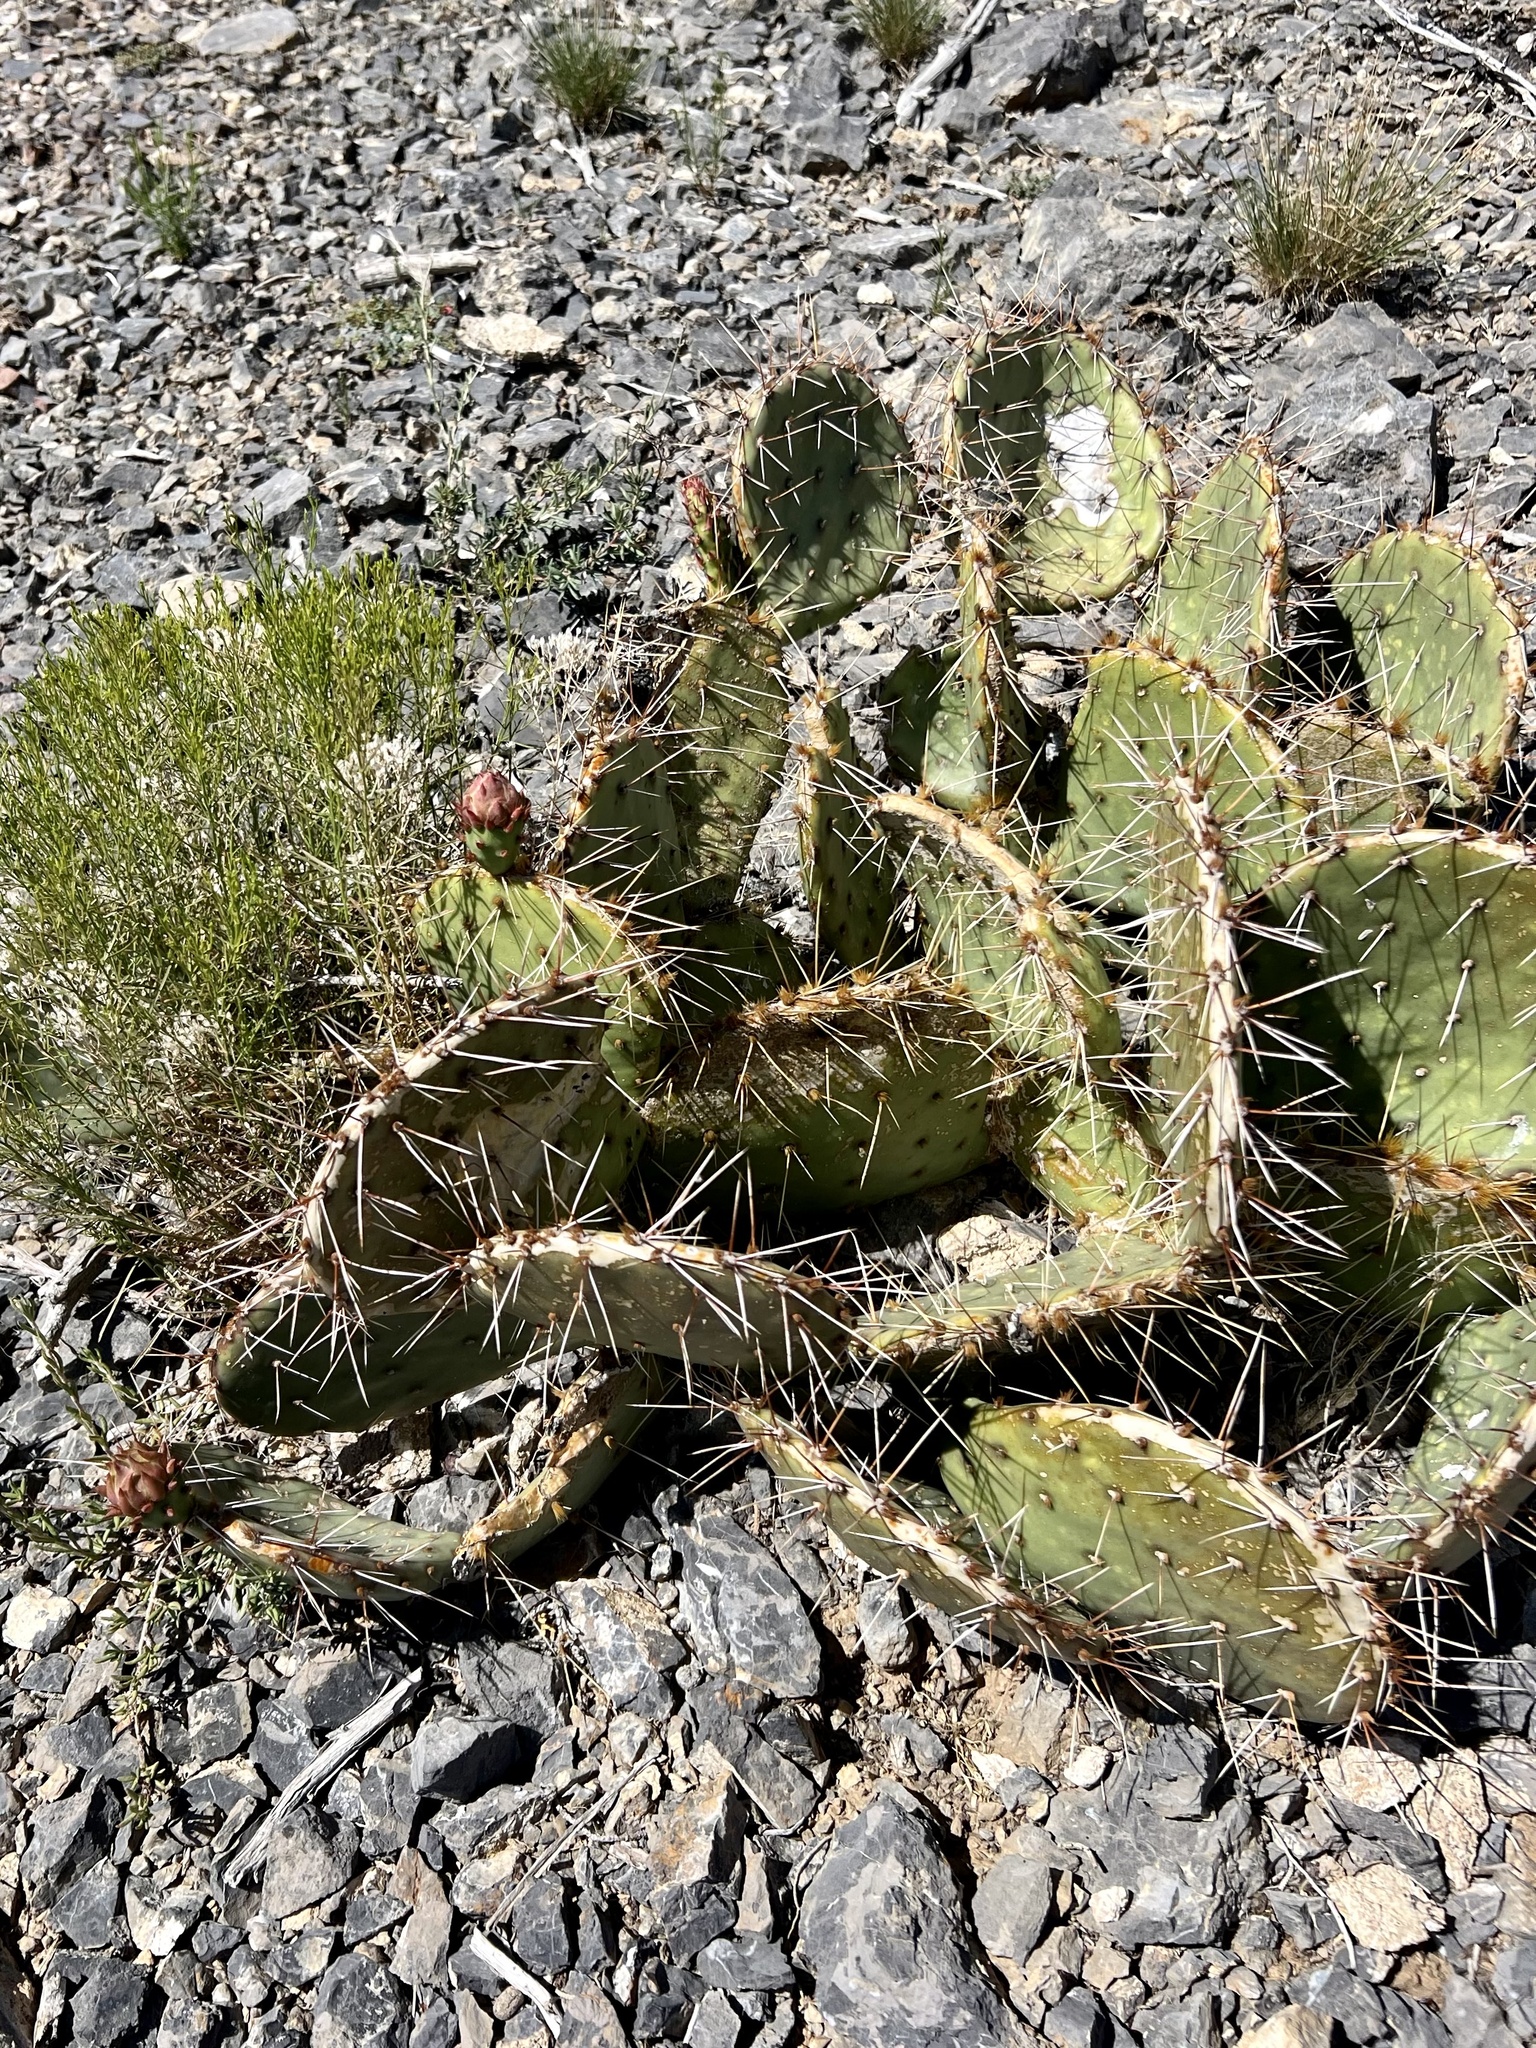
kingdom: Plantae
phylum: Tracheophyta
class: Magnoliopsida
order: Caryophyllales
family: Cactaceae
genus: Opuntia
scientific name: Opuntia phaeacantha
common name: New mexico prickly-pear
